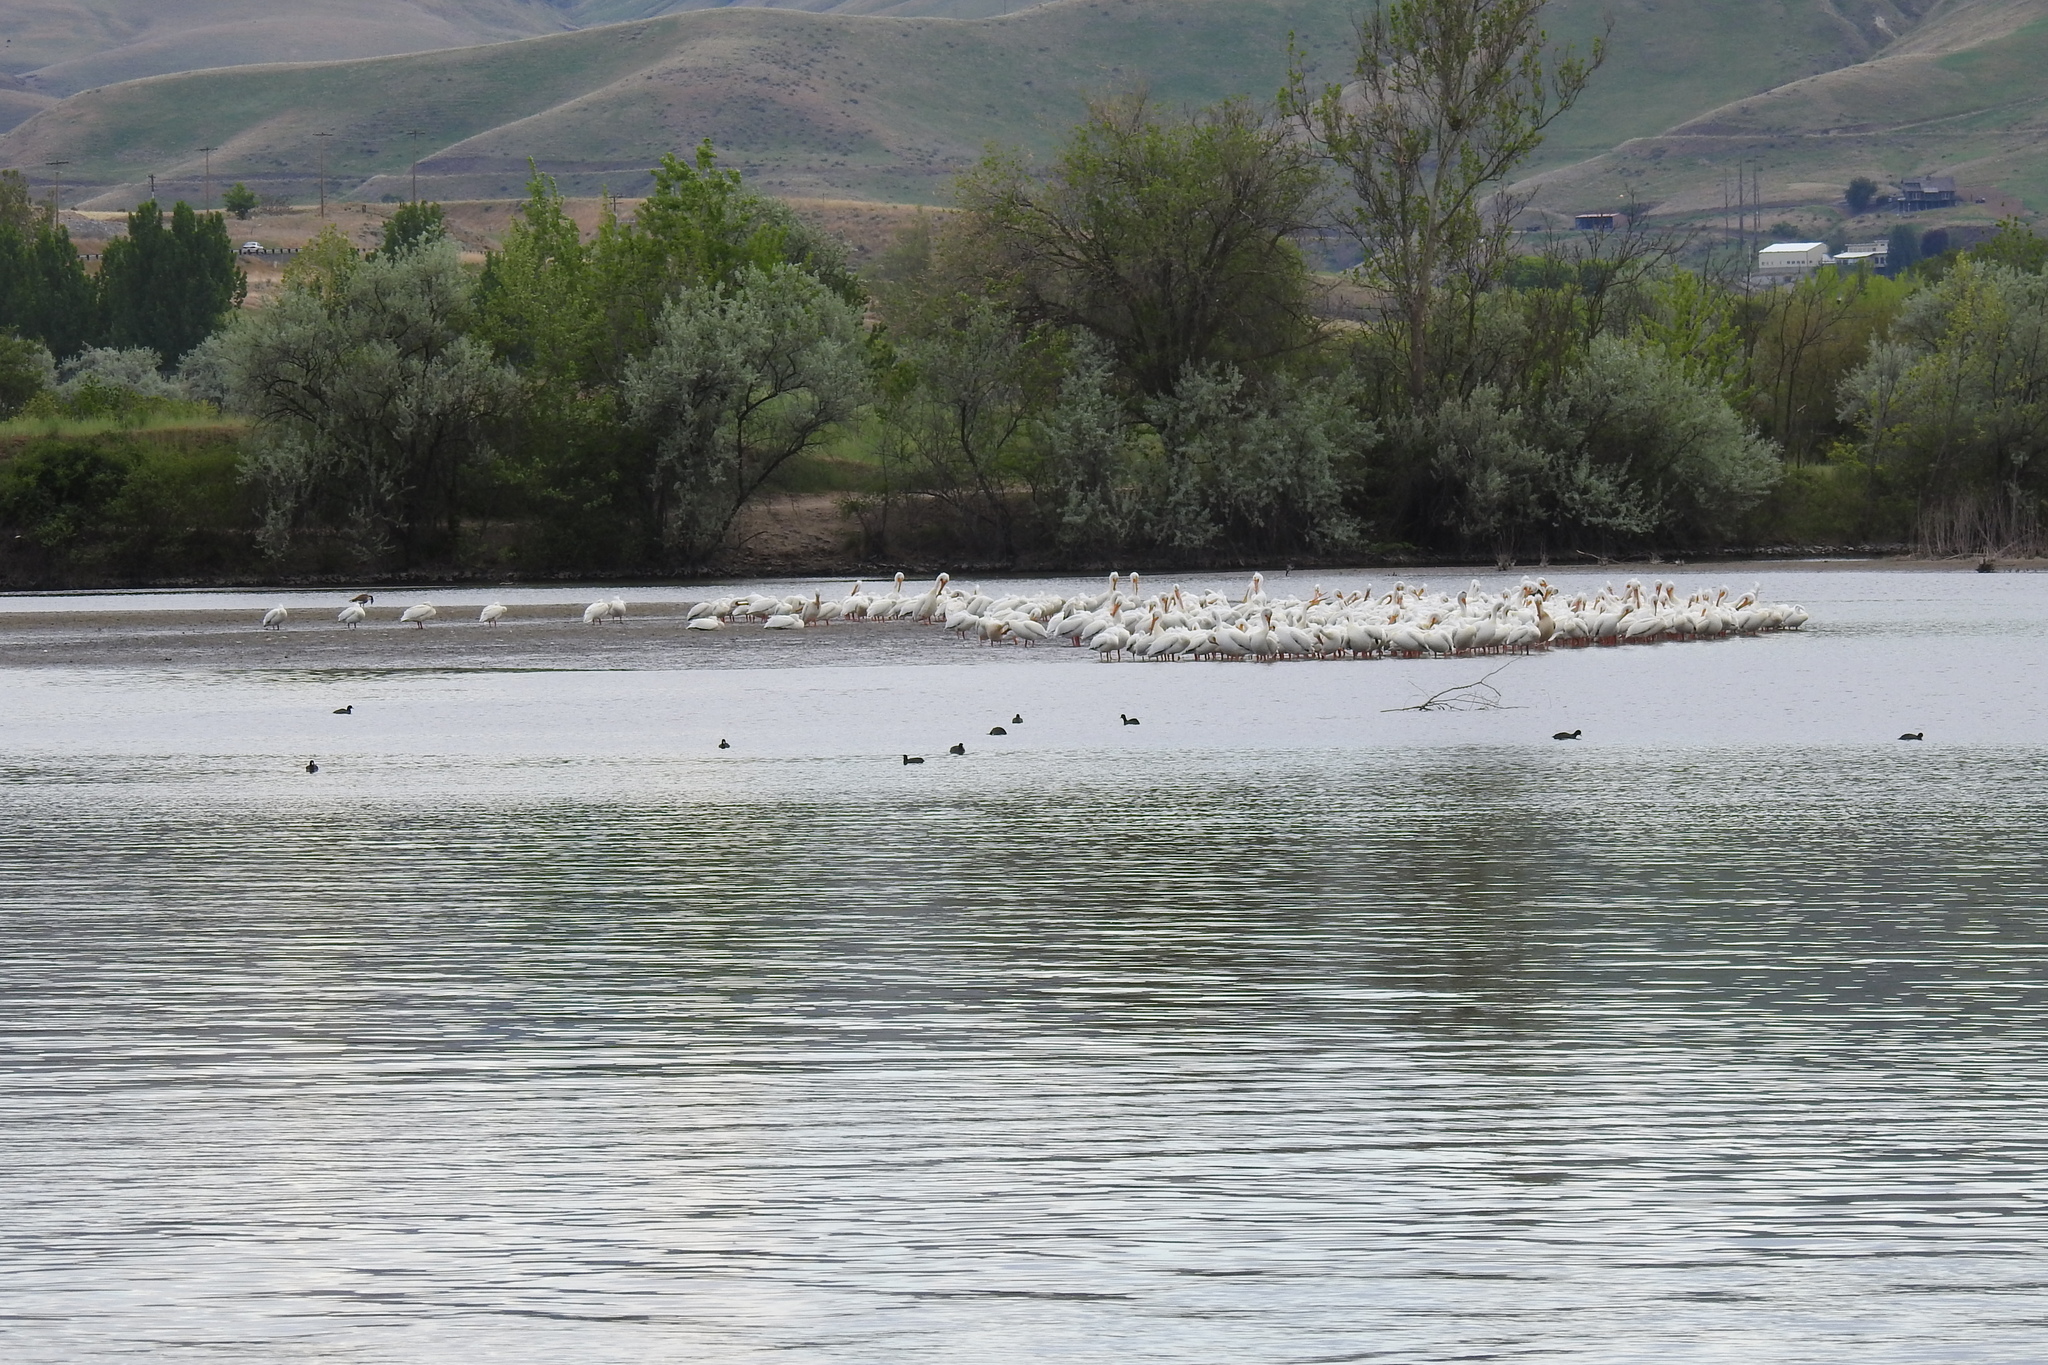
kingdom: Animalia
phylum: Chordata
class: Aves
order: Pelecaniformes
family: Pelecanidae
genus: Pelecanus
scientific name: Pelecanus erythrorhynchos
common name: American white pelican
